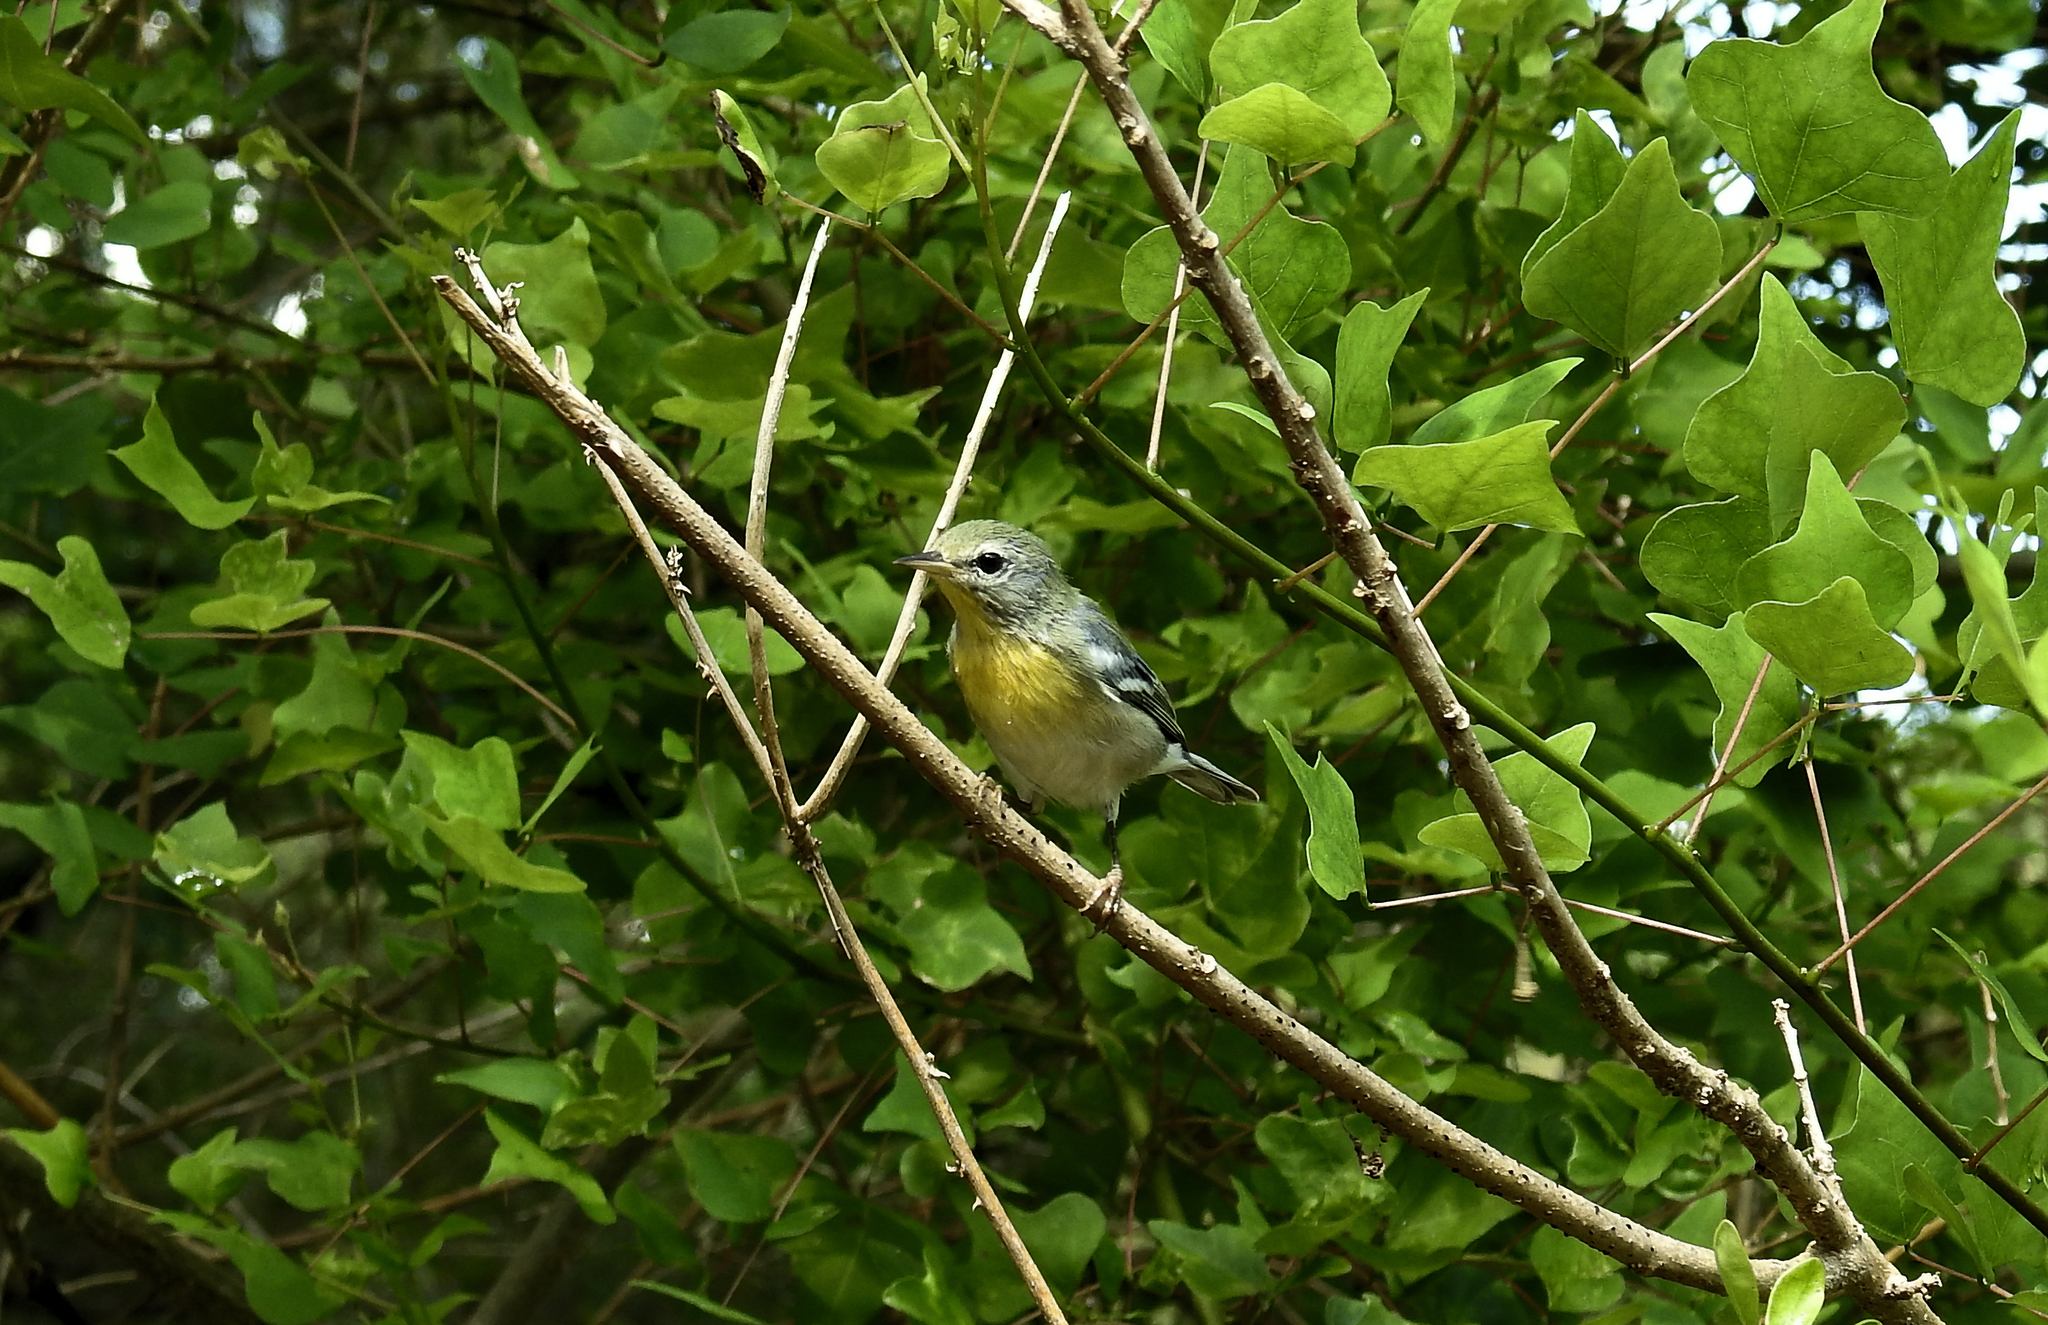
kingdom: Animalia
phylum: Chordata
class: Aves
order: Passeriformes
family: Parulidae
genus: Setophaga
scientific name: Setophaga americana
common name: Northern parula
